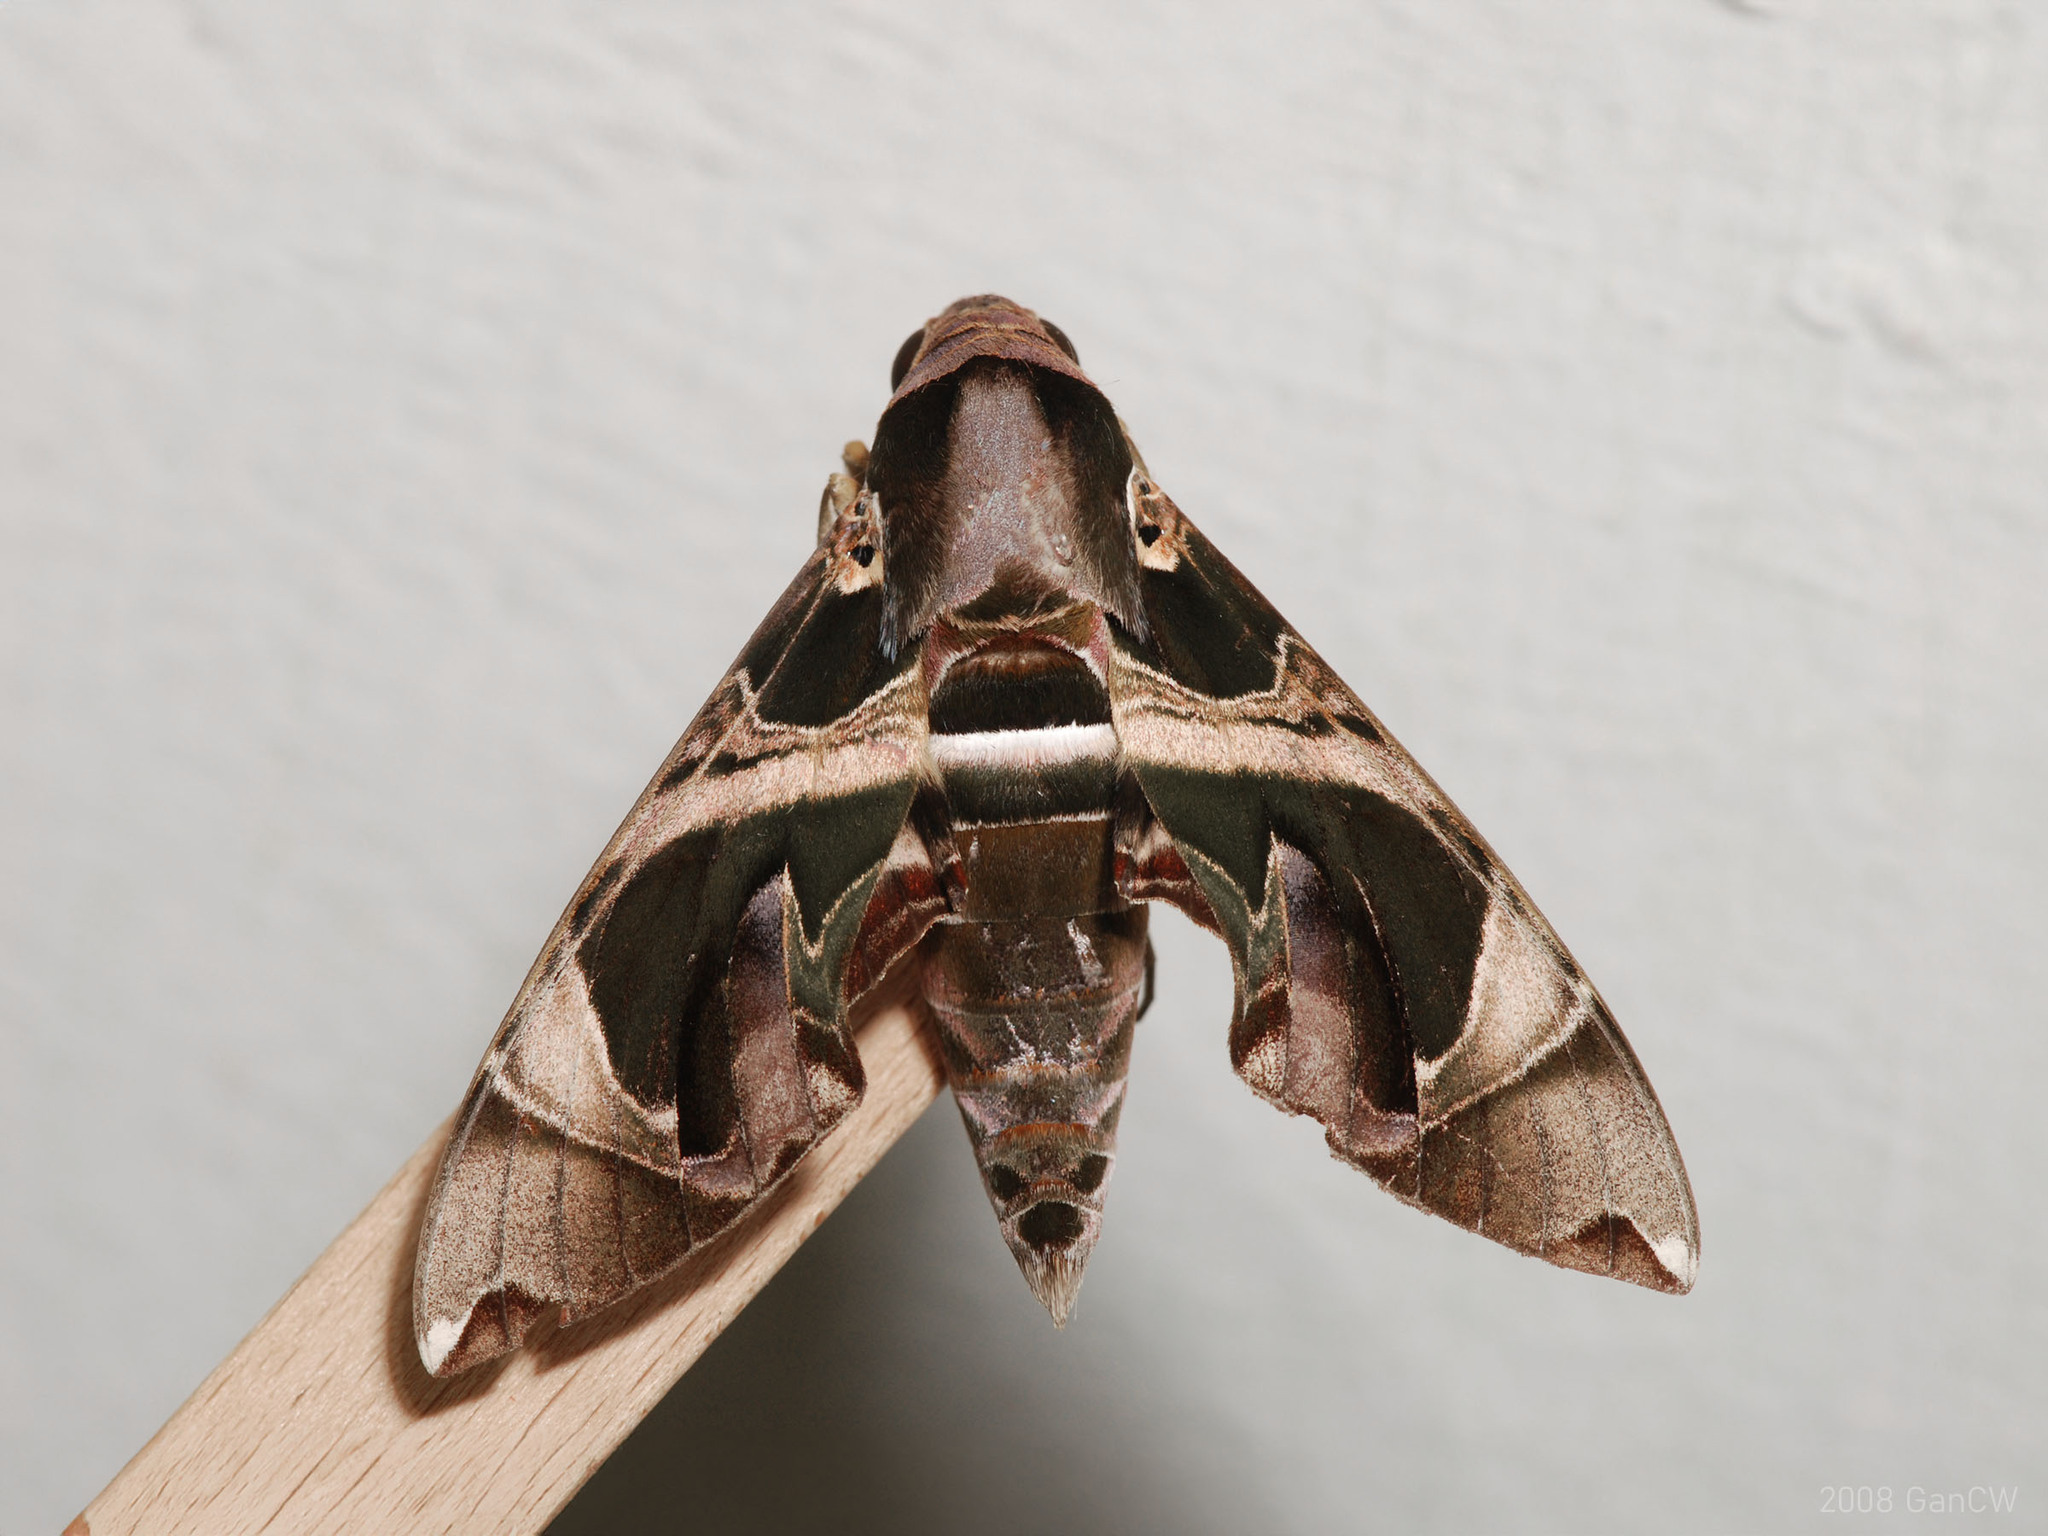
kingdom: Animalia
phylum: Arthropoda
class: Insecta
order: Lepidoptera
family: Sphingidae
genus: Daphnis
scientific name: Daphnis hypothous
